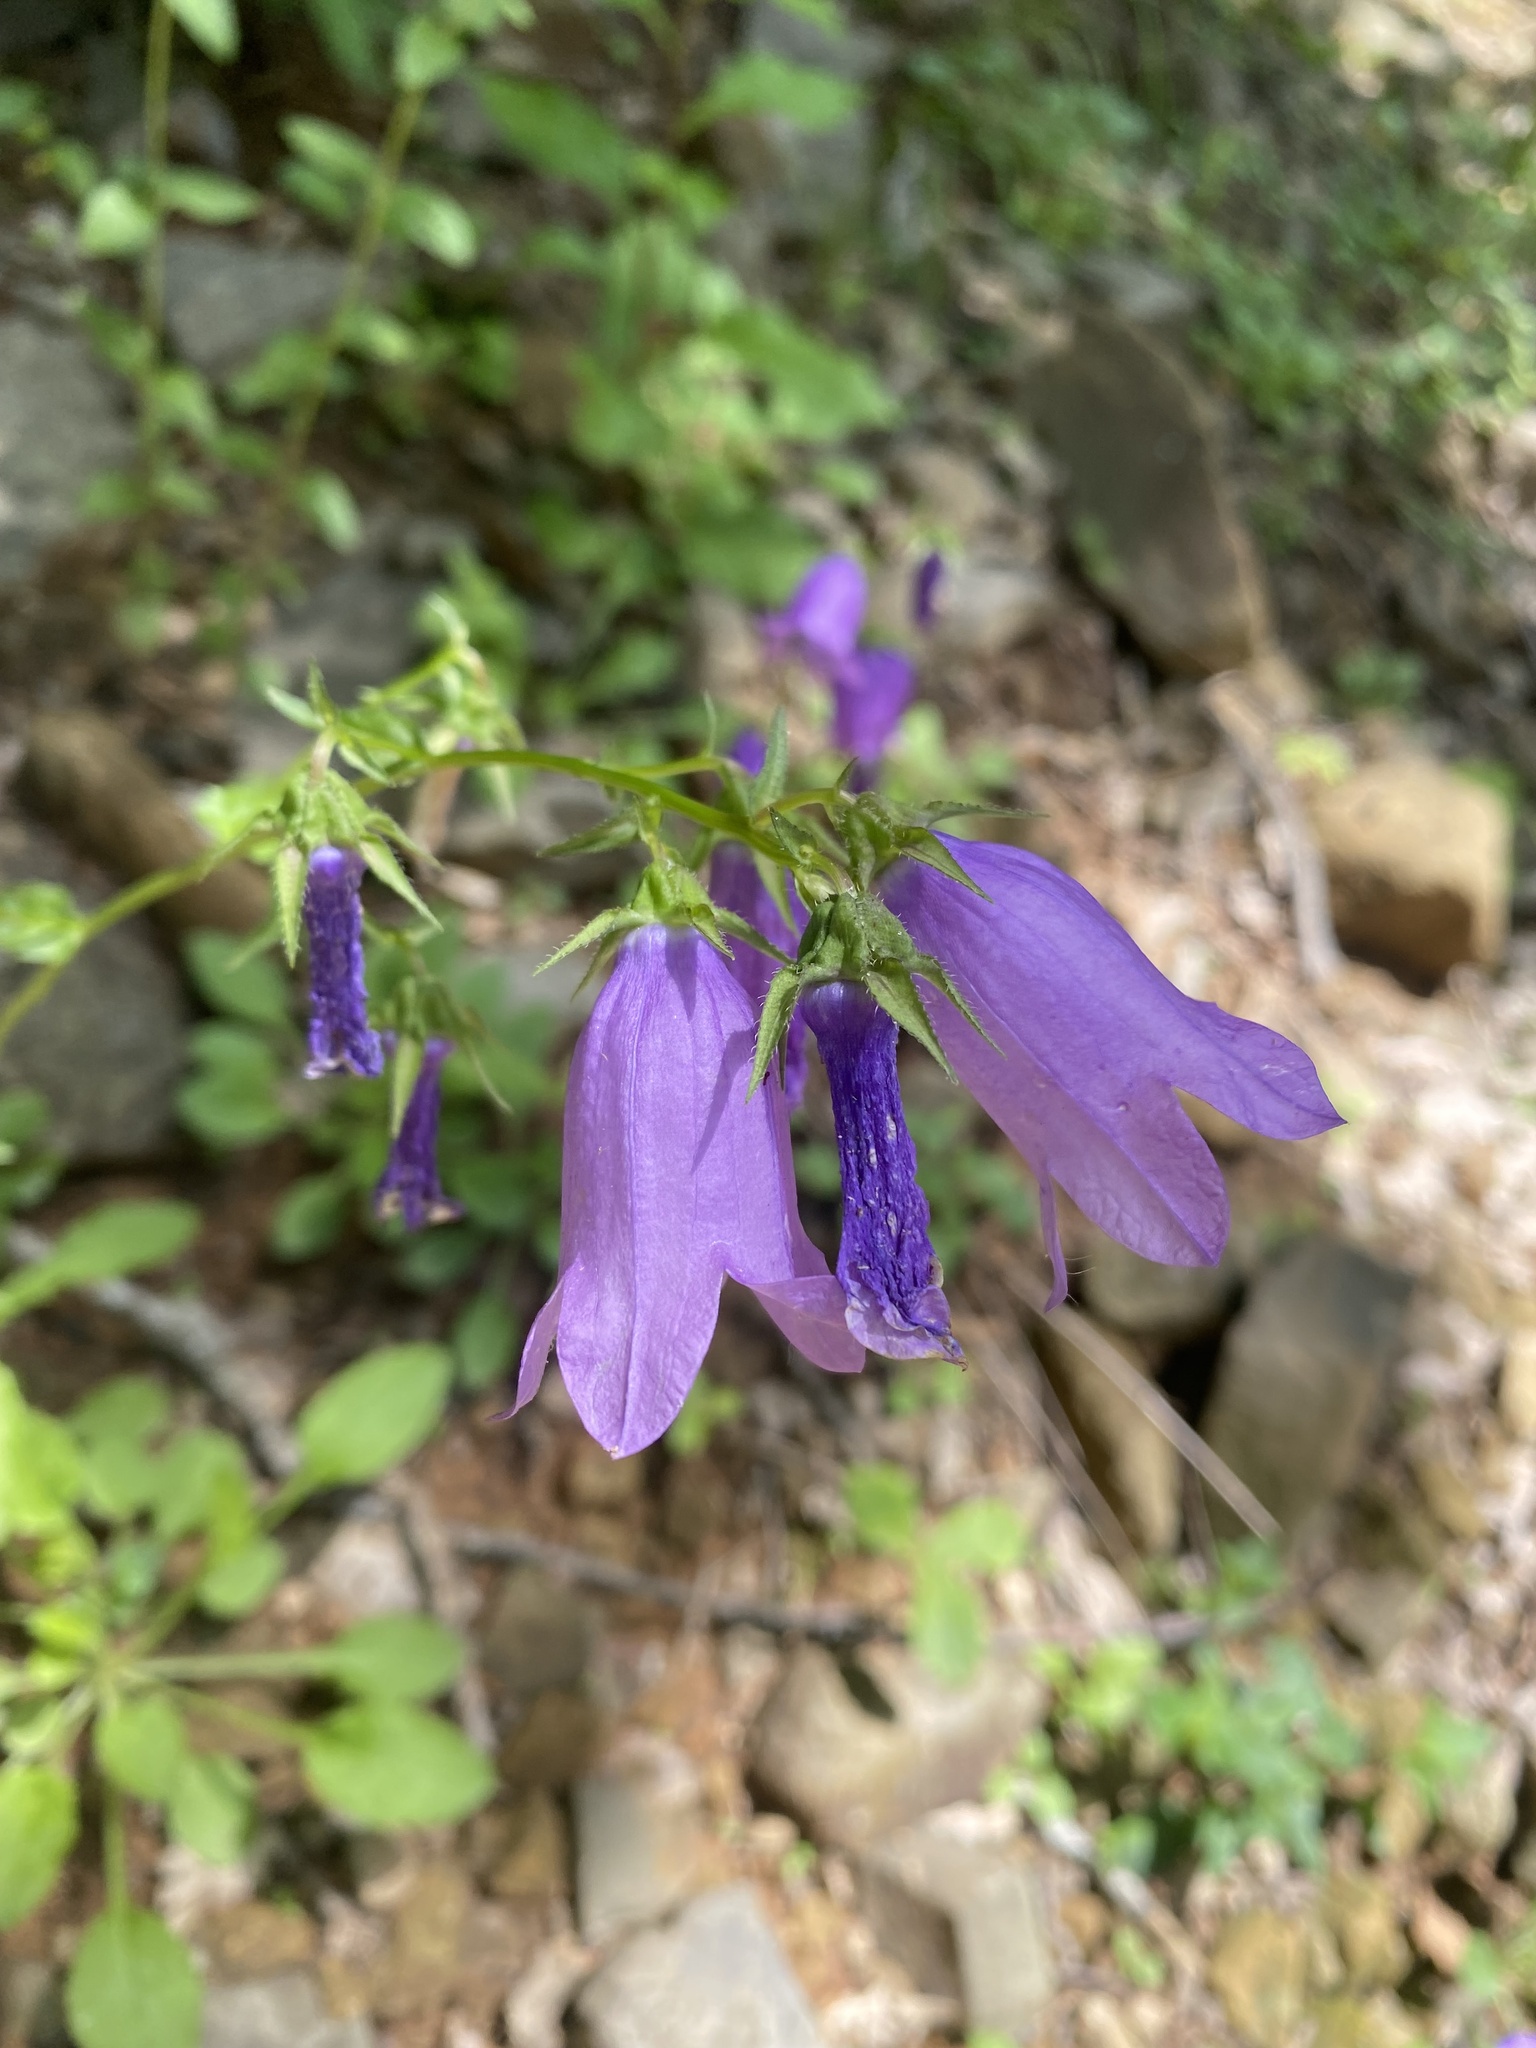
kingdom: Plantae
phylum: Tracheophyta
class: Magnoliopsida
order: Asterales
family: Campanulaceae
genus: Campanula
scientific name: Campanula komarovii
